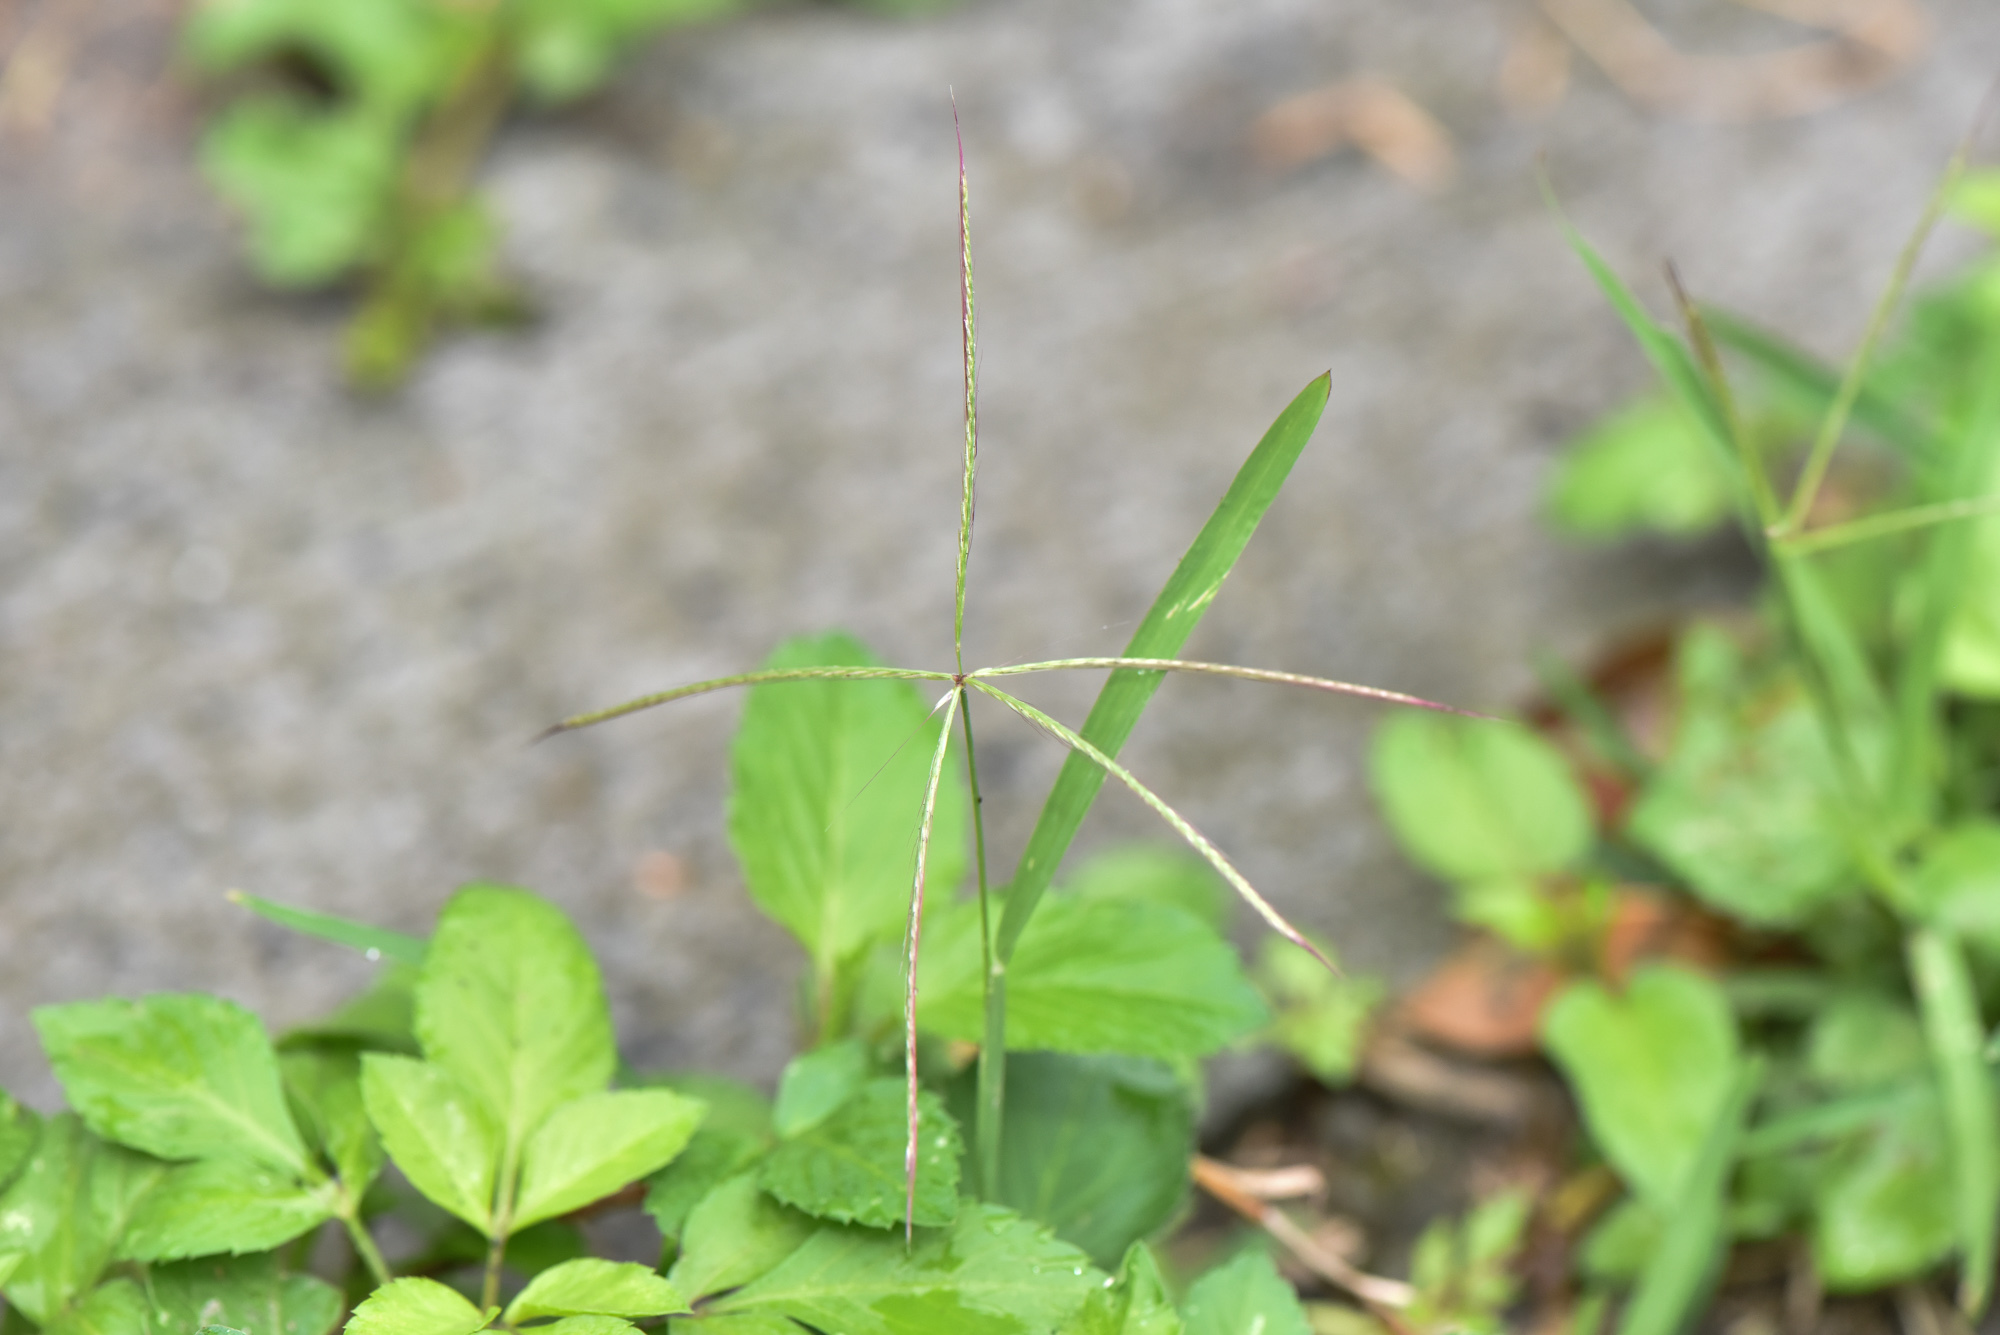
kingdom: Plantae
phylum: Tracheophyta
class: Liliopsida
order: Poales
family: Poaceae
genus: Chloris
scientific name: Chloris divaricata
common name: Spreading windmill grass
